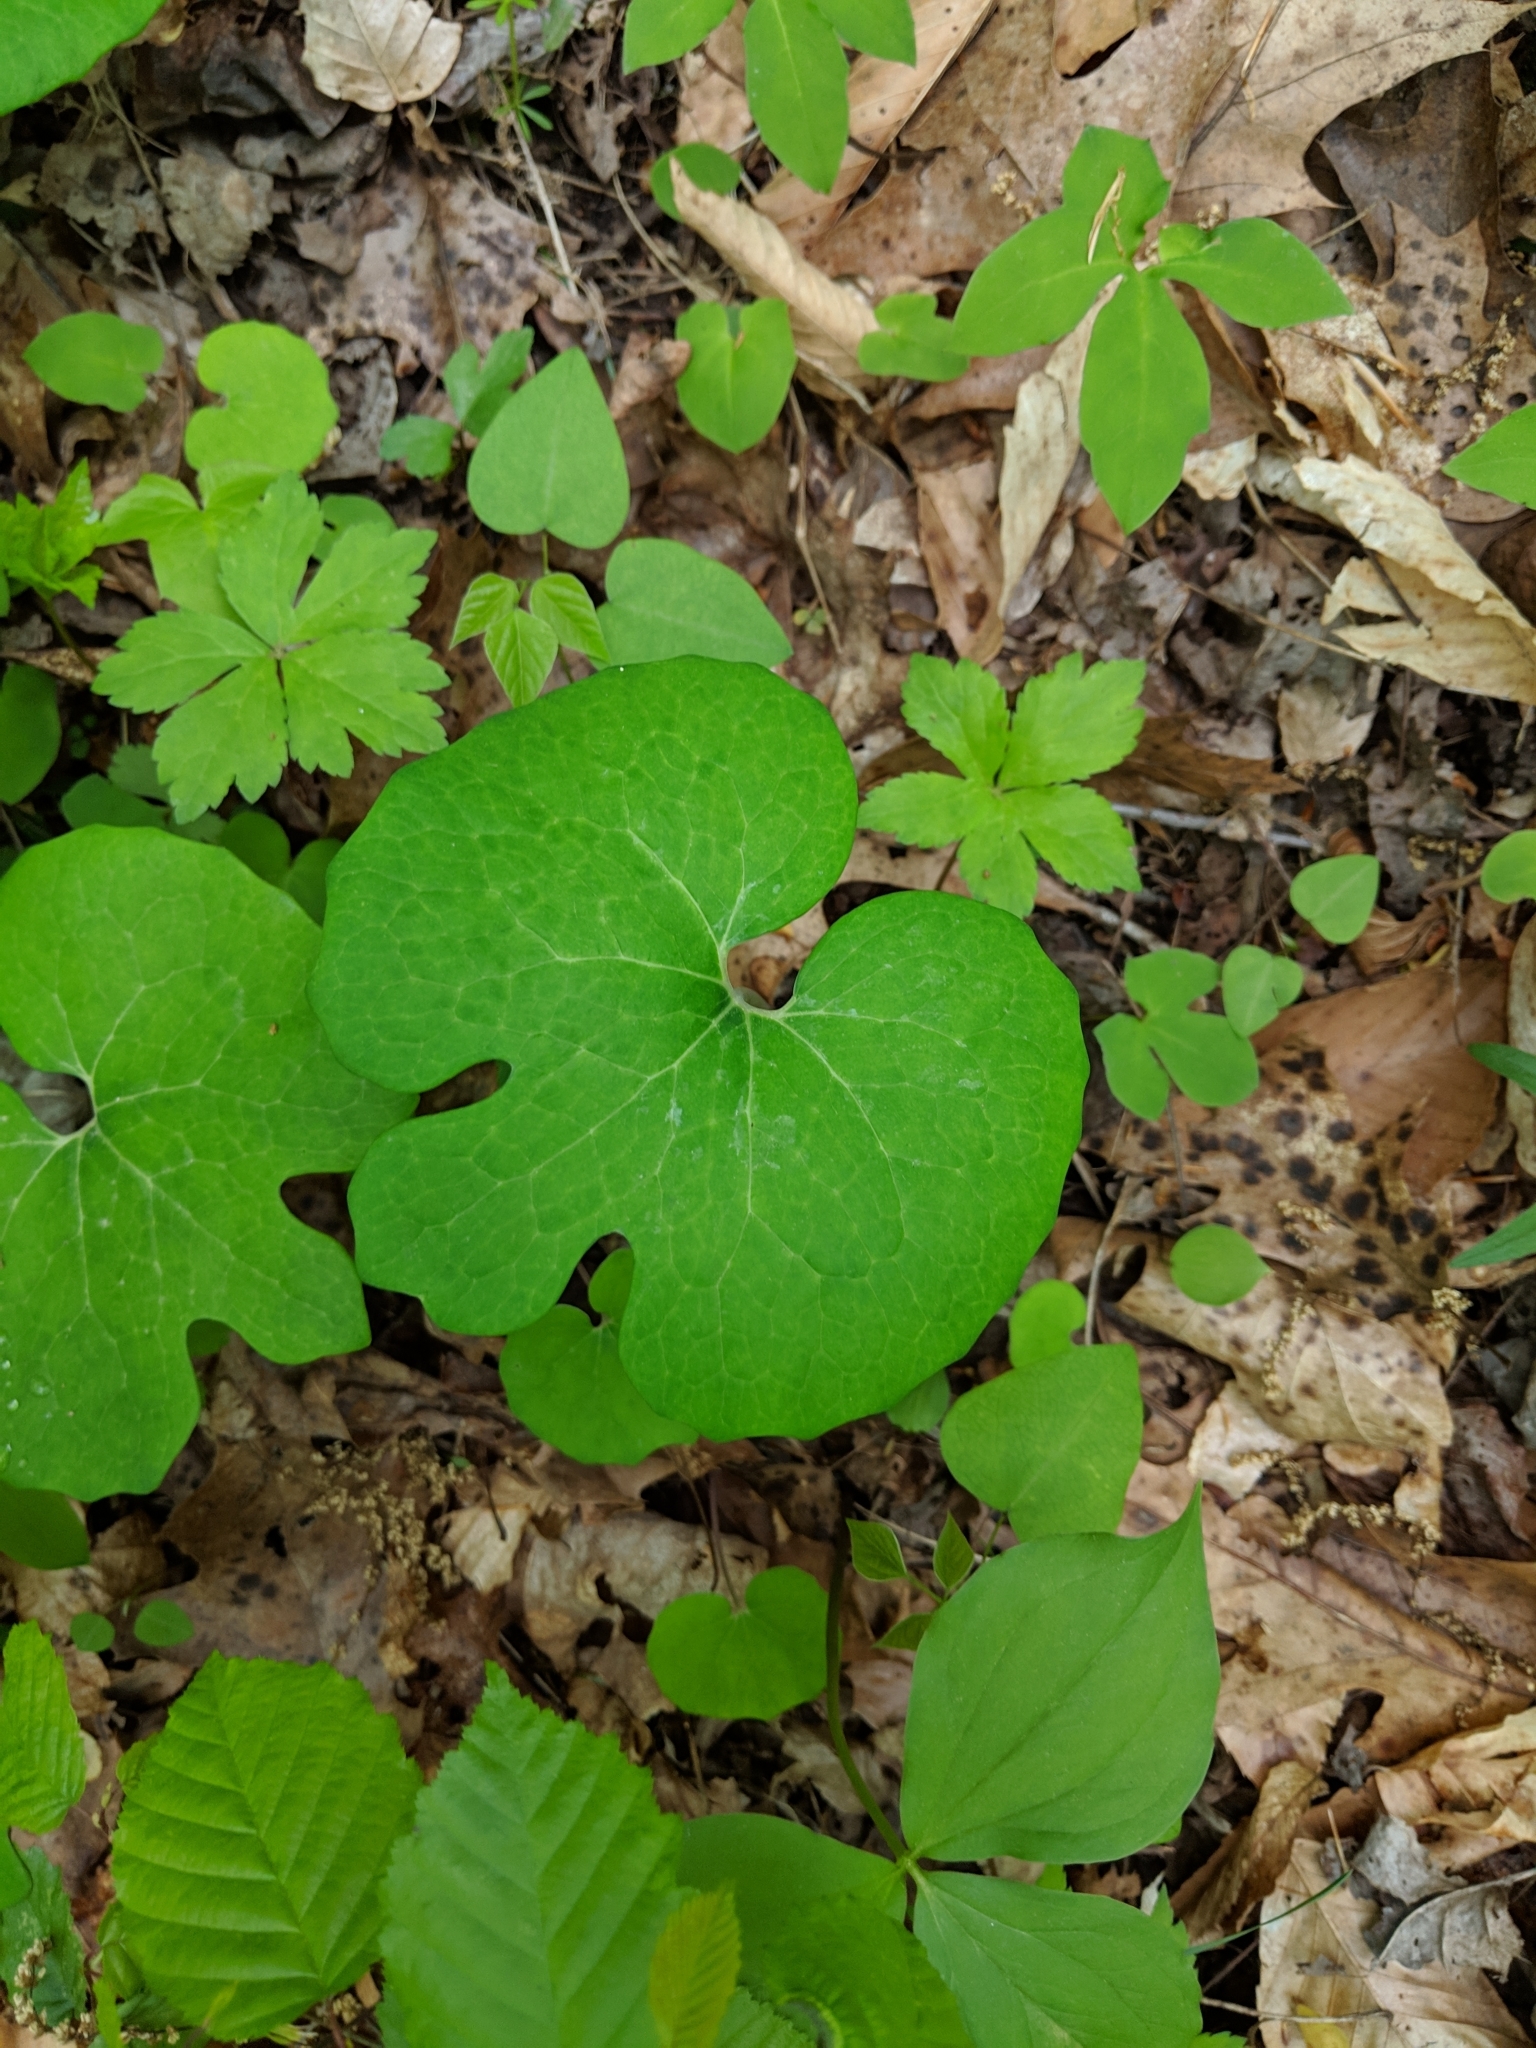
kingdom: Plantae
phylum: Tracheophyta
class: Magnoliopsida
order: Ranunculales
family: Papaveraceae
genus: Sanguinaria
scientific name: Sanguinaria canadensis
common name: Bloodroot
